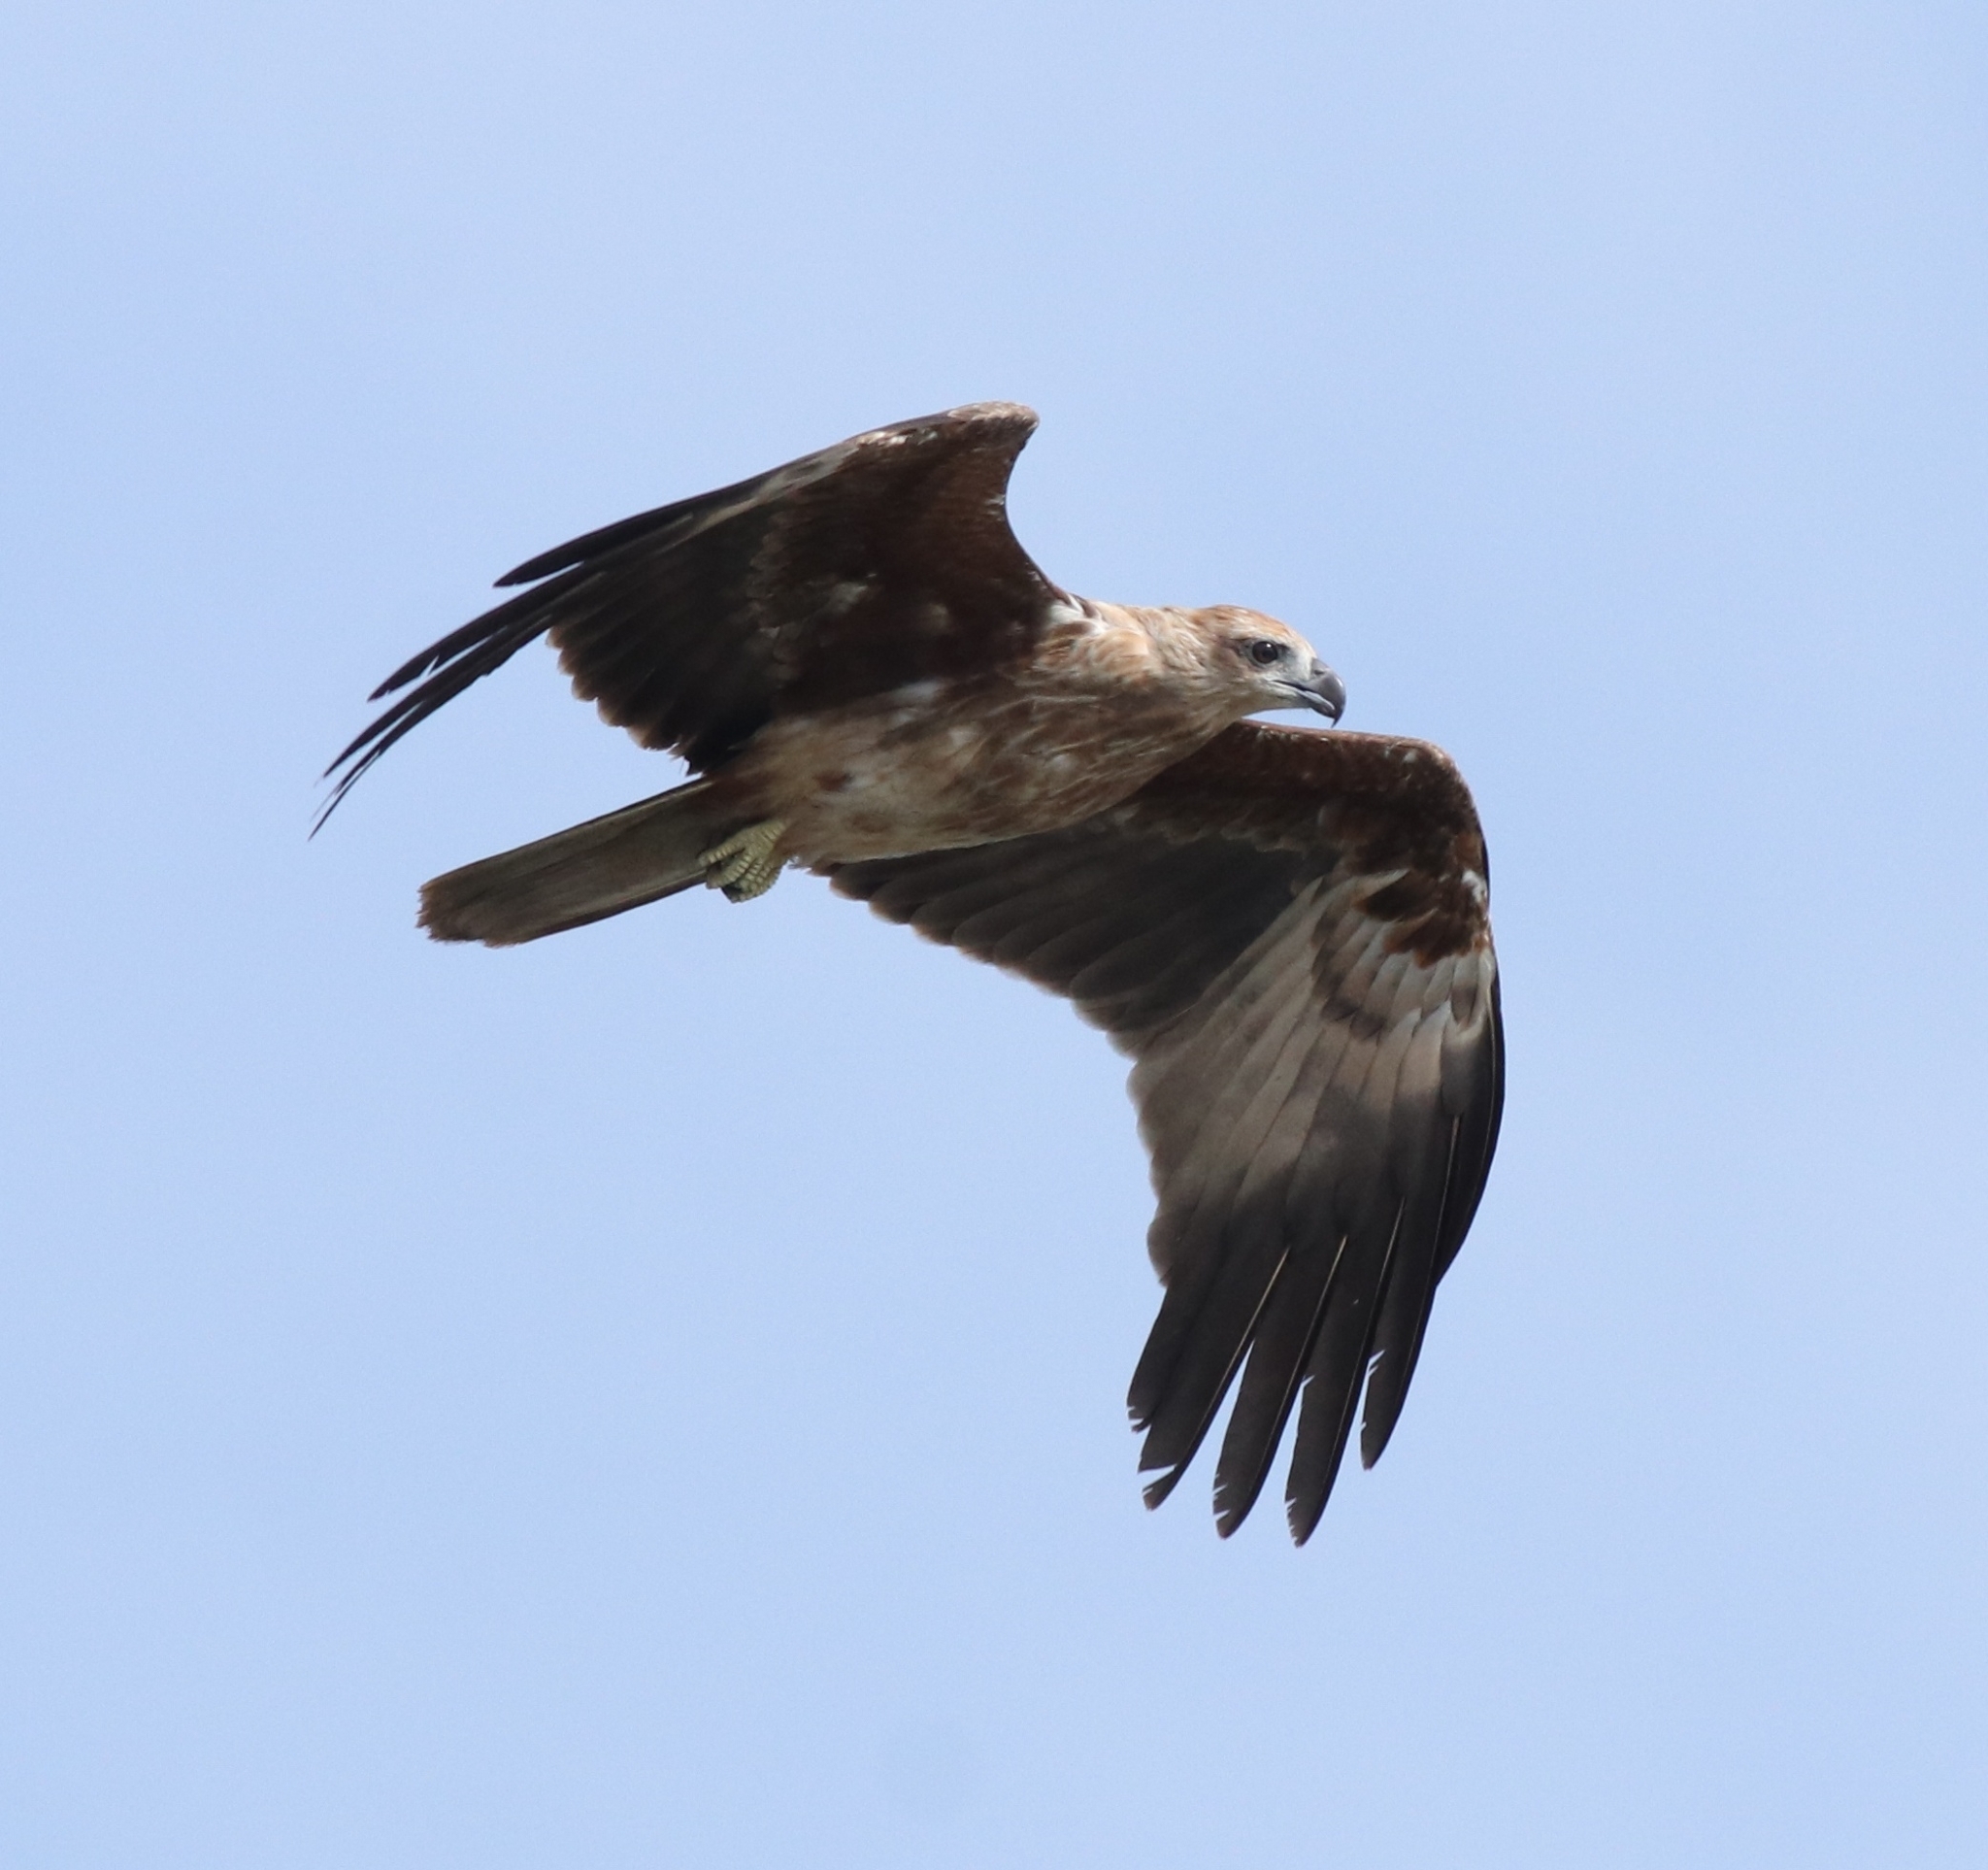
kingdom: Animalia
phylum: Chordata
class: Aves
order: Accipitriformes
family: Accipitridae
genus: Haliastur
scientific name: Haliastur indus
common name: Brahminy kite
